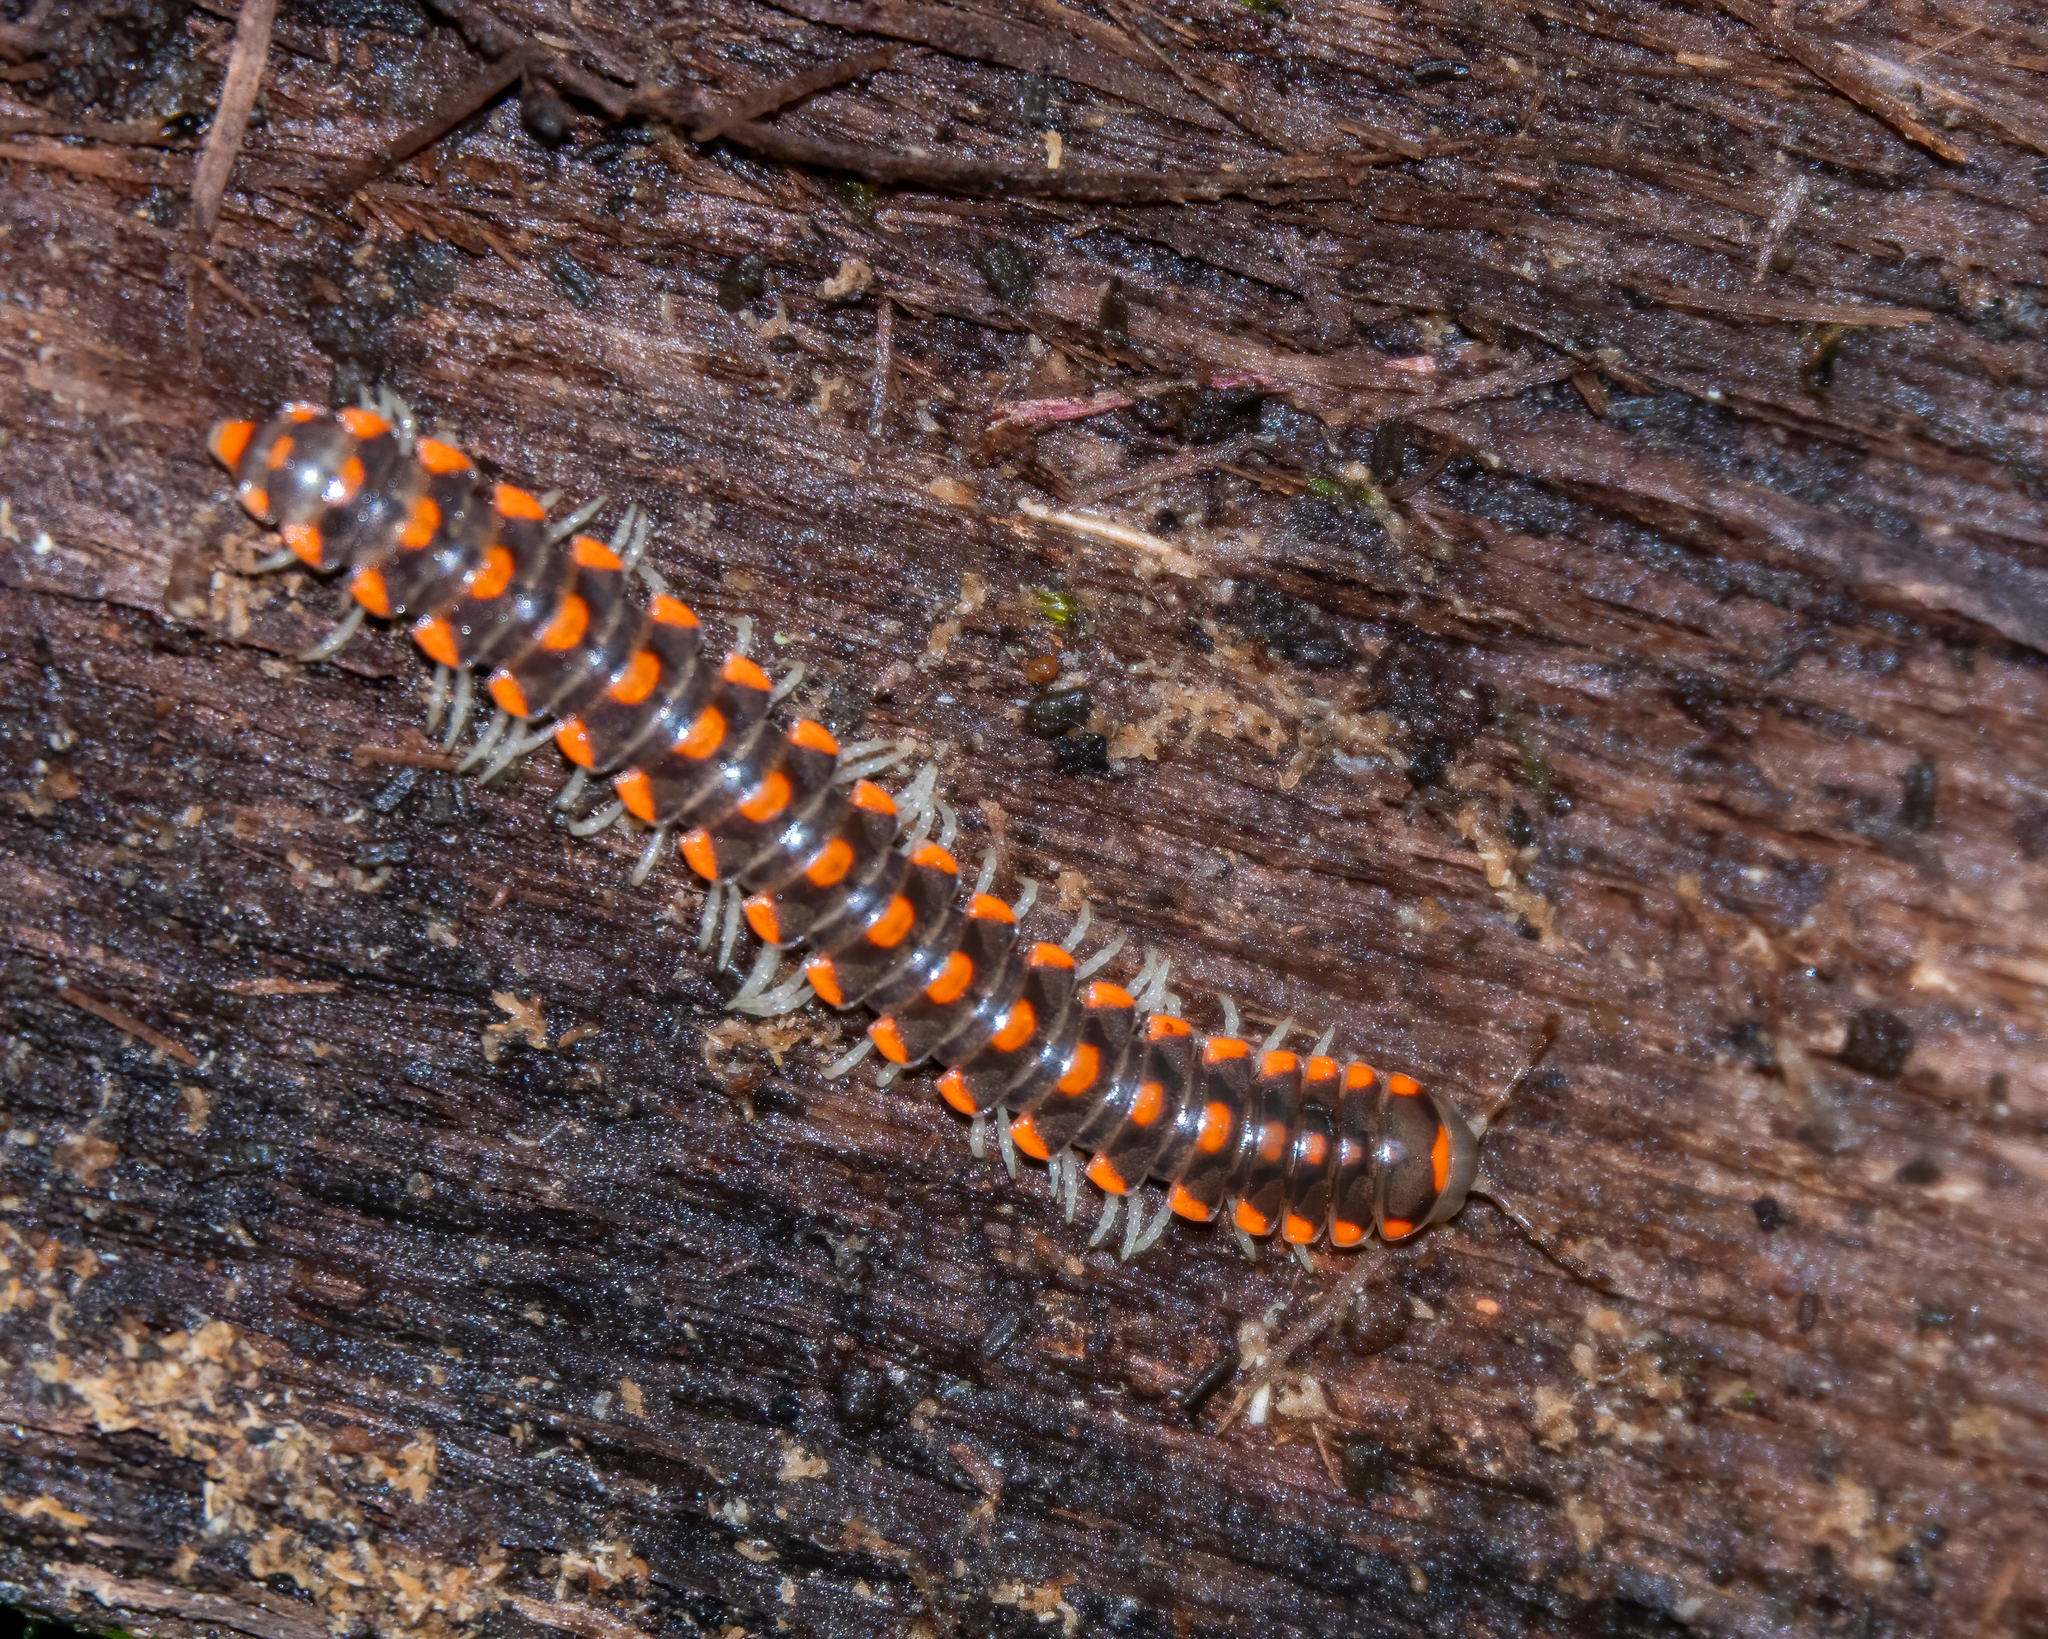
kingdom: Animalia
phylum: Arthropoda
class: Diplopoda
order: Polydesmida
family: Xystodesmidae
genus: Euryurus
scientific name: Euryurus leachii
